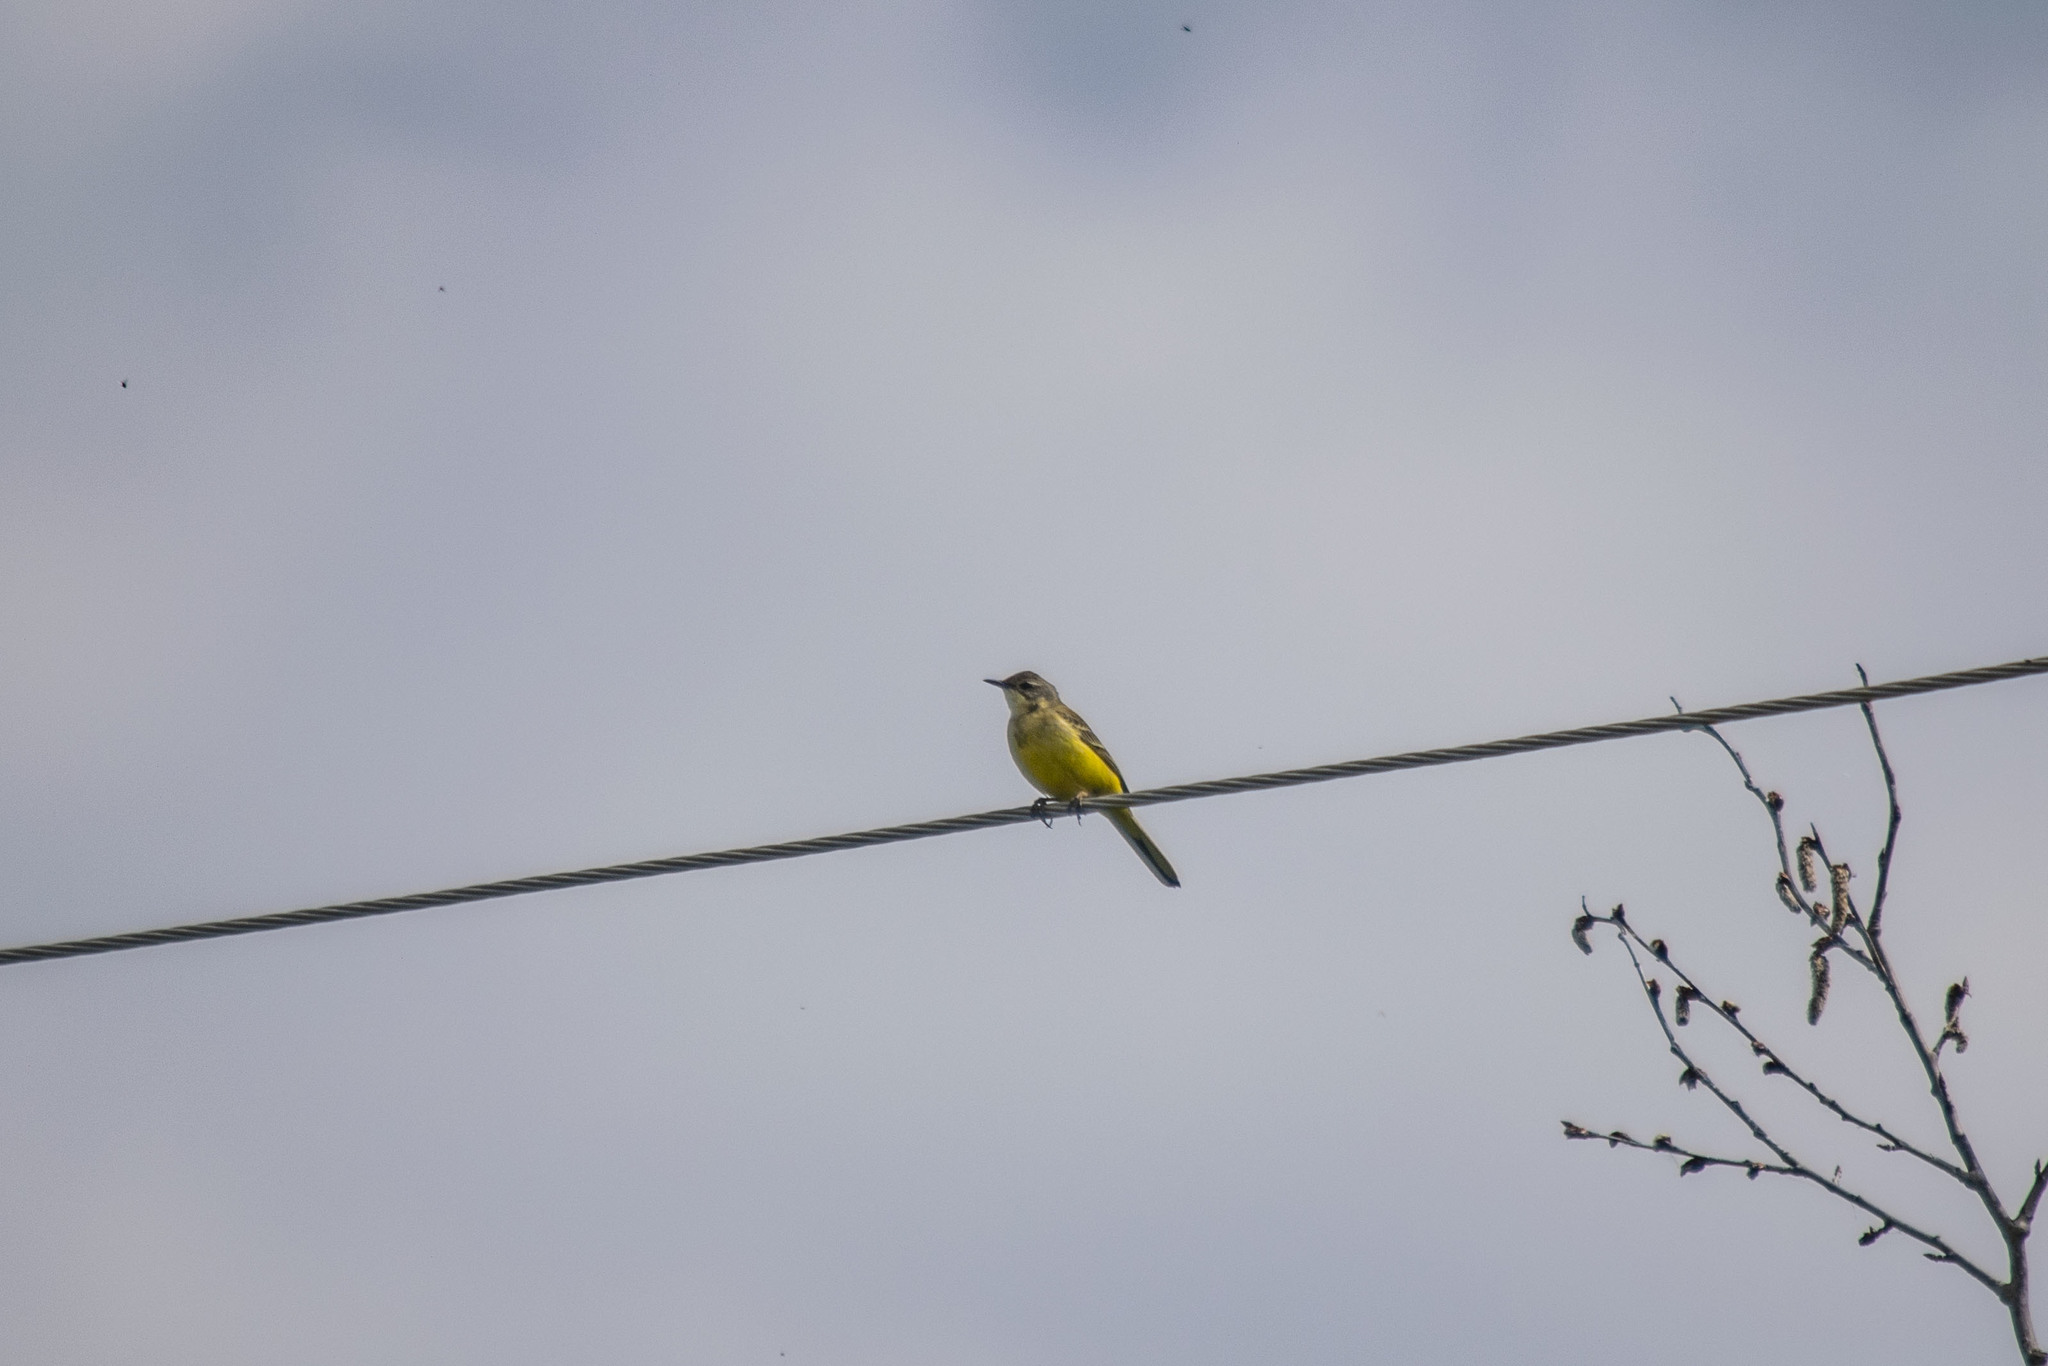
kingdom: Animalia
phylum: Chordata
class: Aves
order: Passeriformes
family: Motacillidae
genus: Motacilla
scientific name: Motacilla flava
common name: Western yellow wagtail
